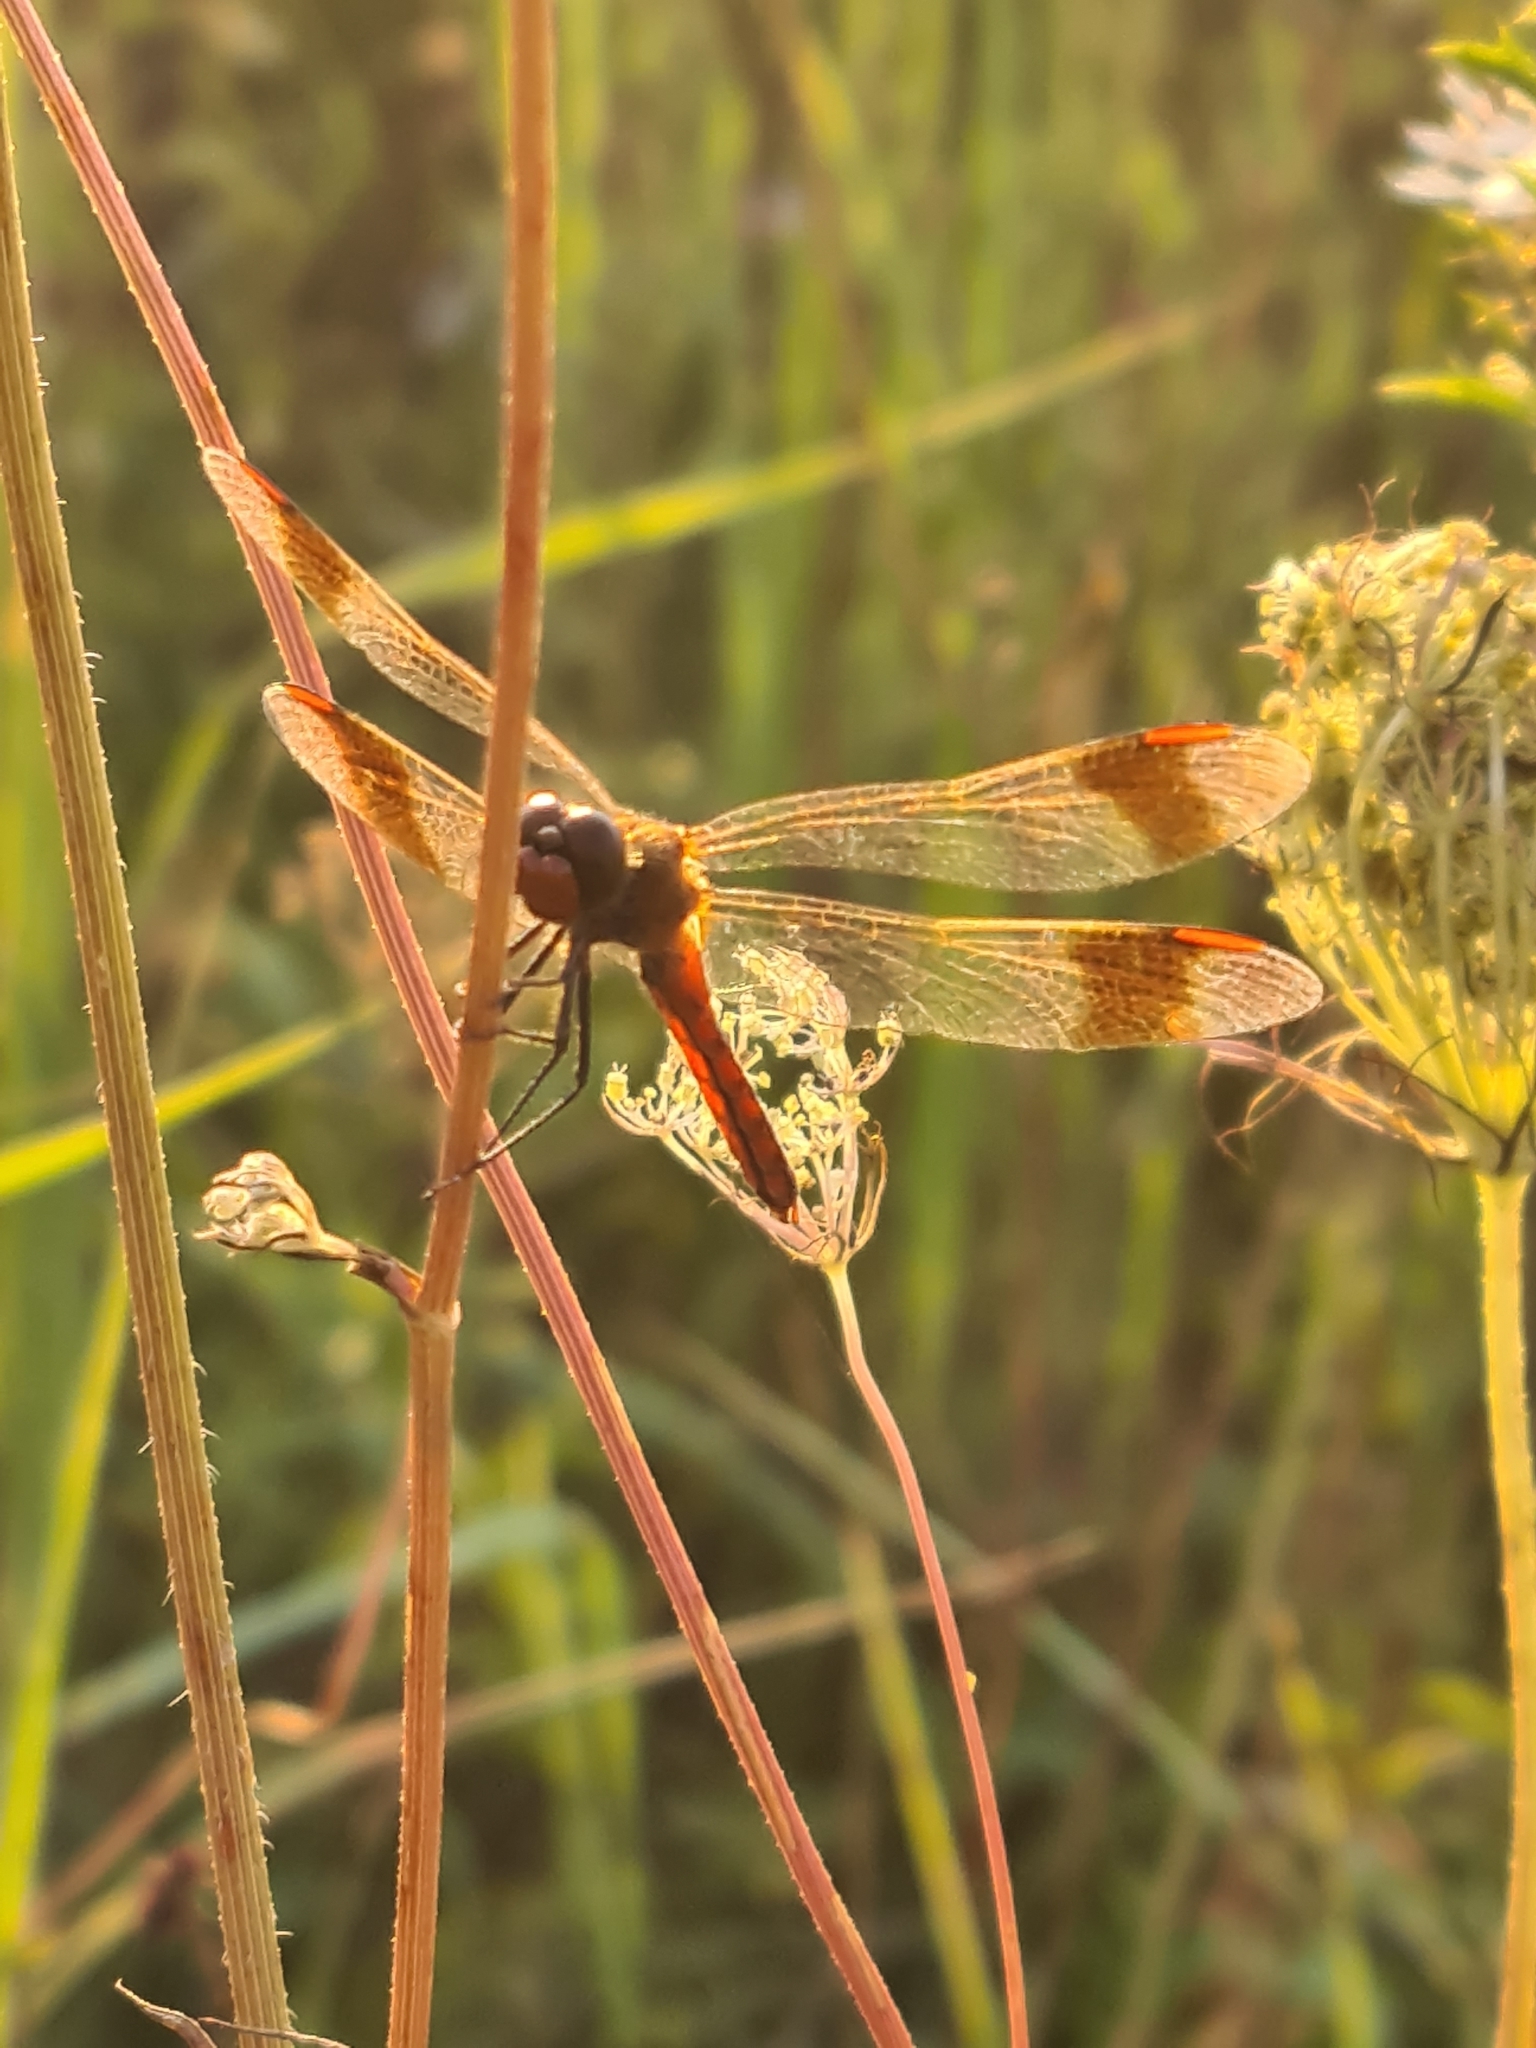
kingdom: Animalia
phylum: Arthropoda
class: Insecta
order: Odonata
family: Libellulidae
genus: Sympetrum
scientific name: Sympetrum pedemontanum
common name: Banded darter
